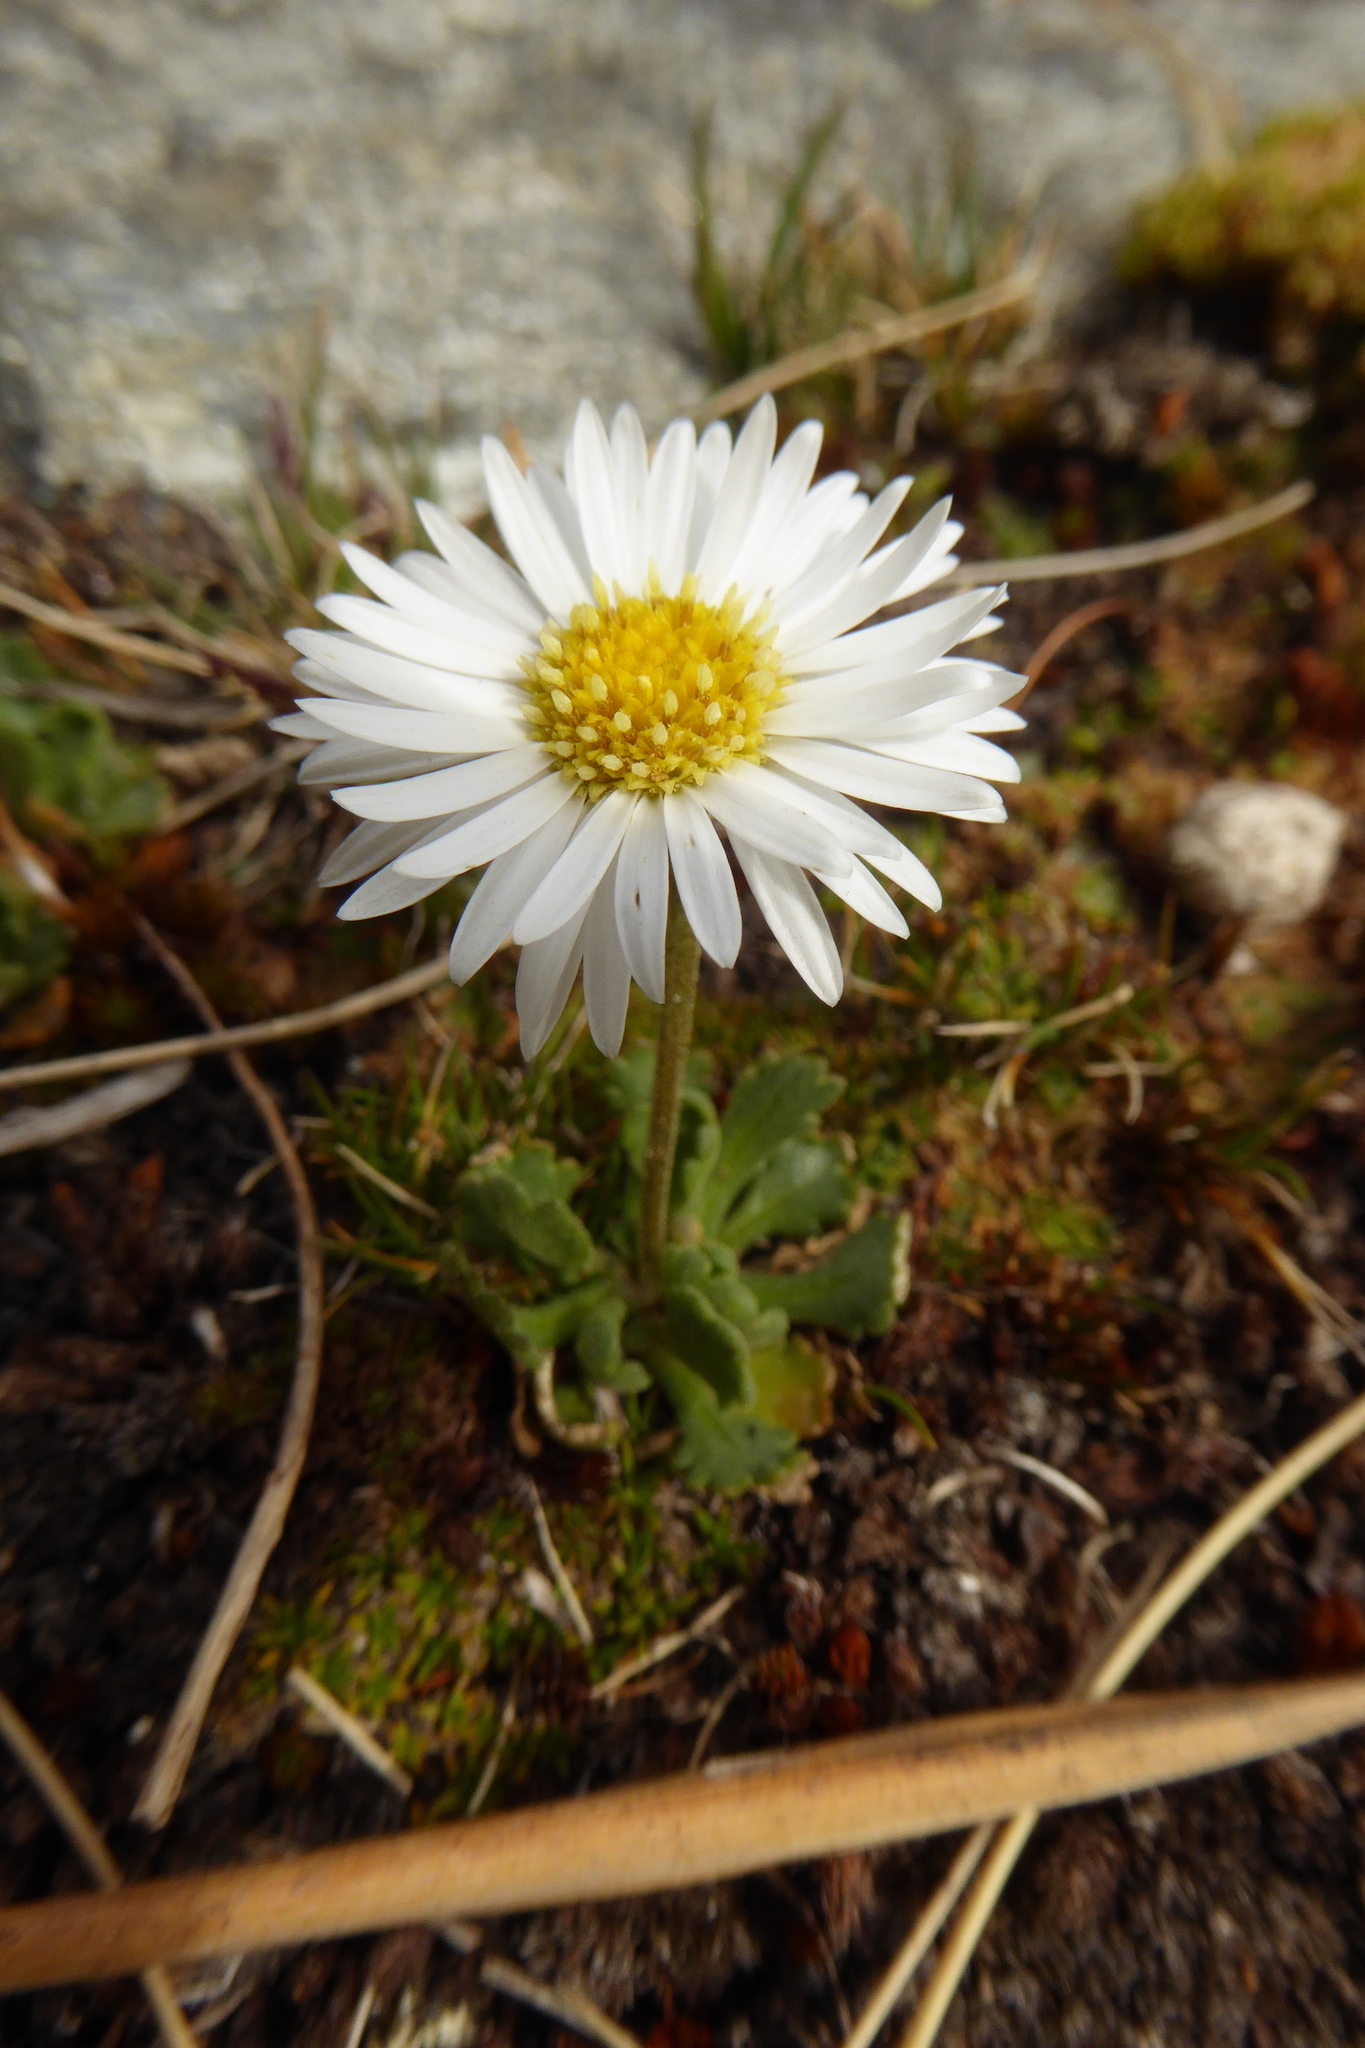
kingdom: Plantae
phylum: Tracheophyta
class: Magnoliopsida
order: Asterales
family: Asteraceae
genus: Brachyscome
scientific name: Brachyscome sinclairii
